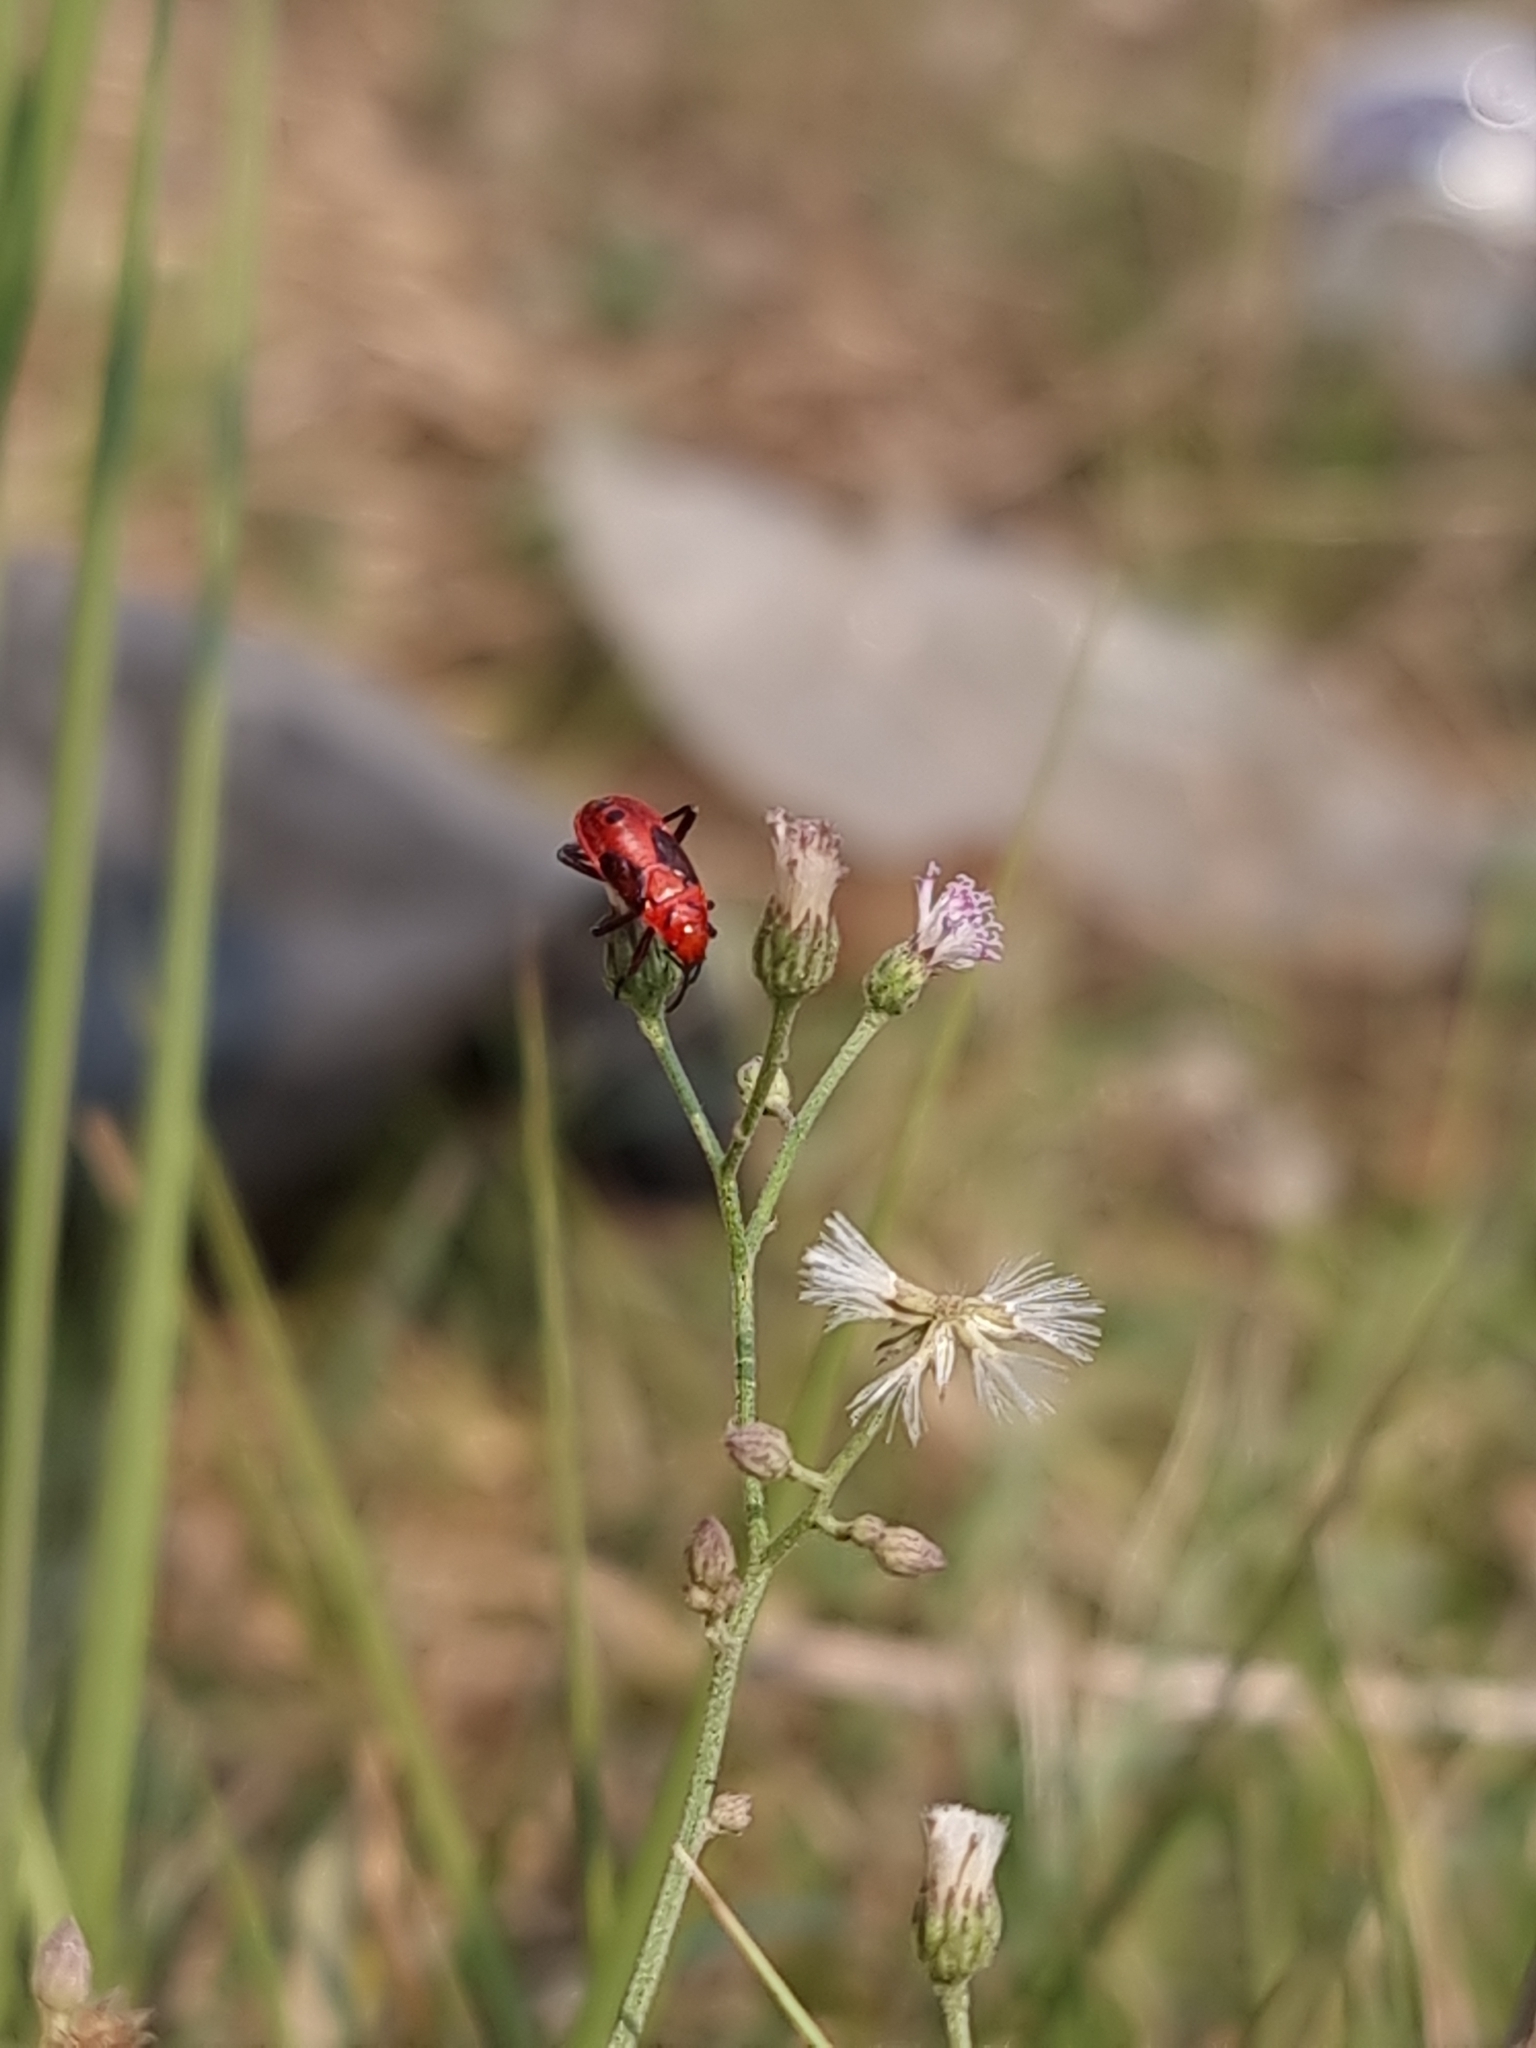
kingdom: Animalia
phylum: Arthropoda
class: Insecta
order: Hemiptera
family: Lygaeidae
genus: Spilostethus
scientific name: Spilostethus hospes
